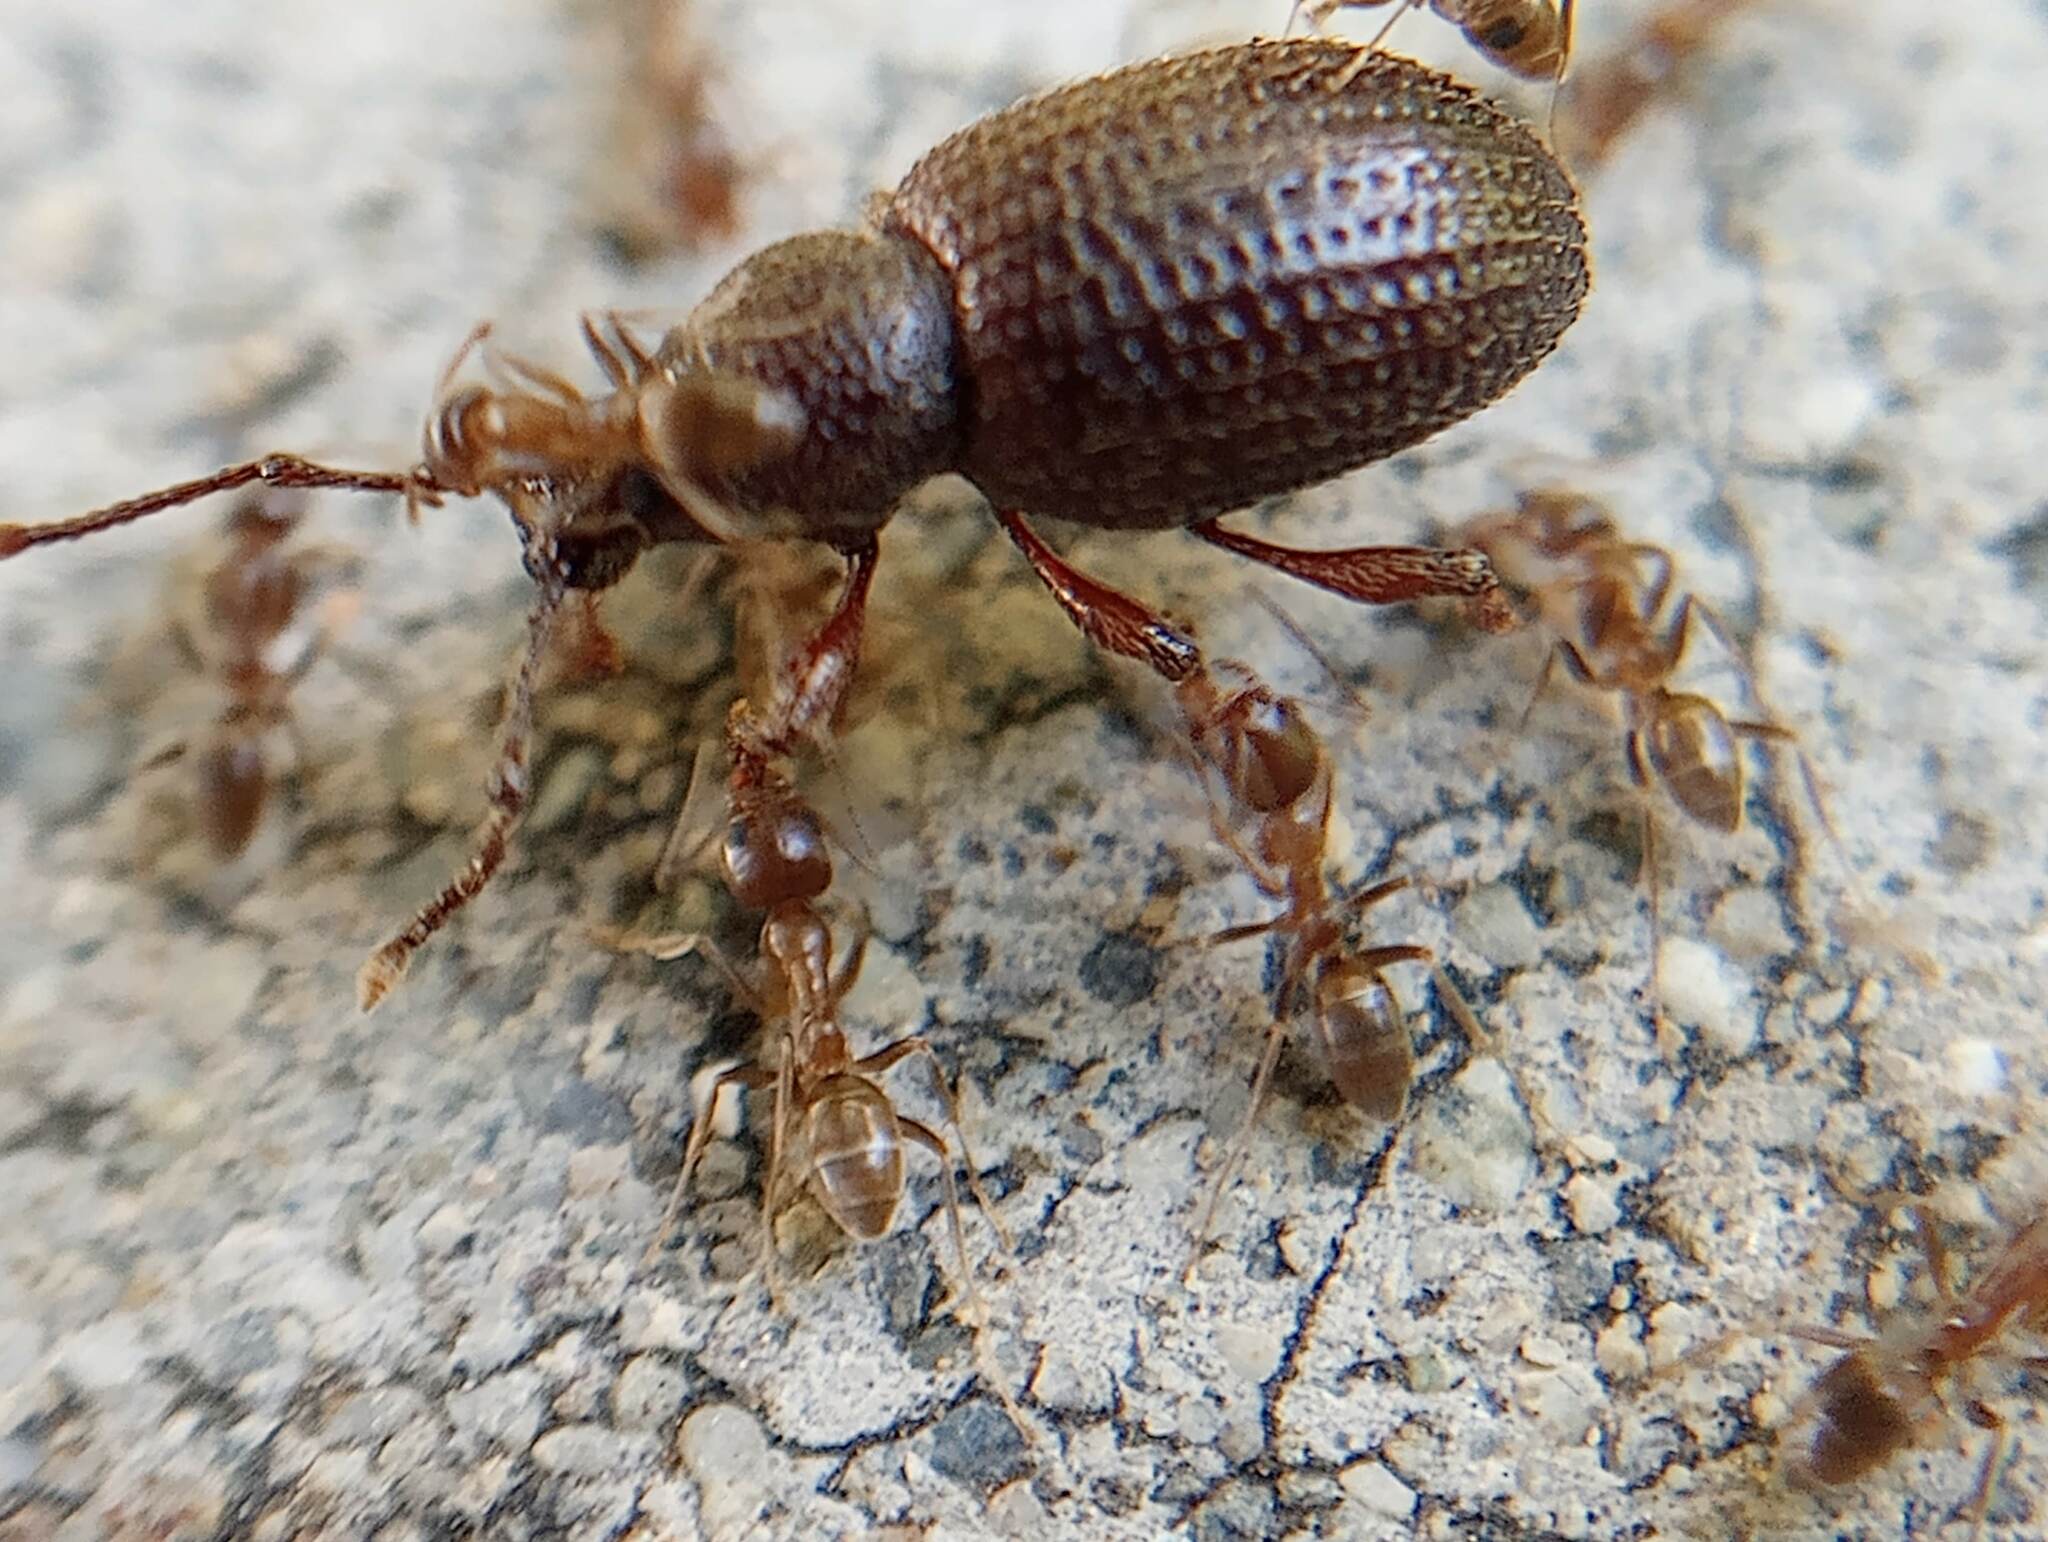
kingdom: Animalia
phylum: Arthropoda
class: Insecta
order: Hymenoptera
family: Formicidae
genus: Linepithema
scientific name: Linepithema humile
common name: Argentine ant
